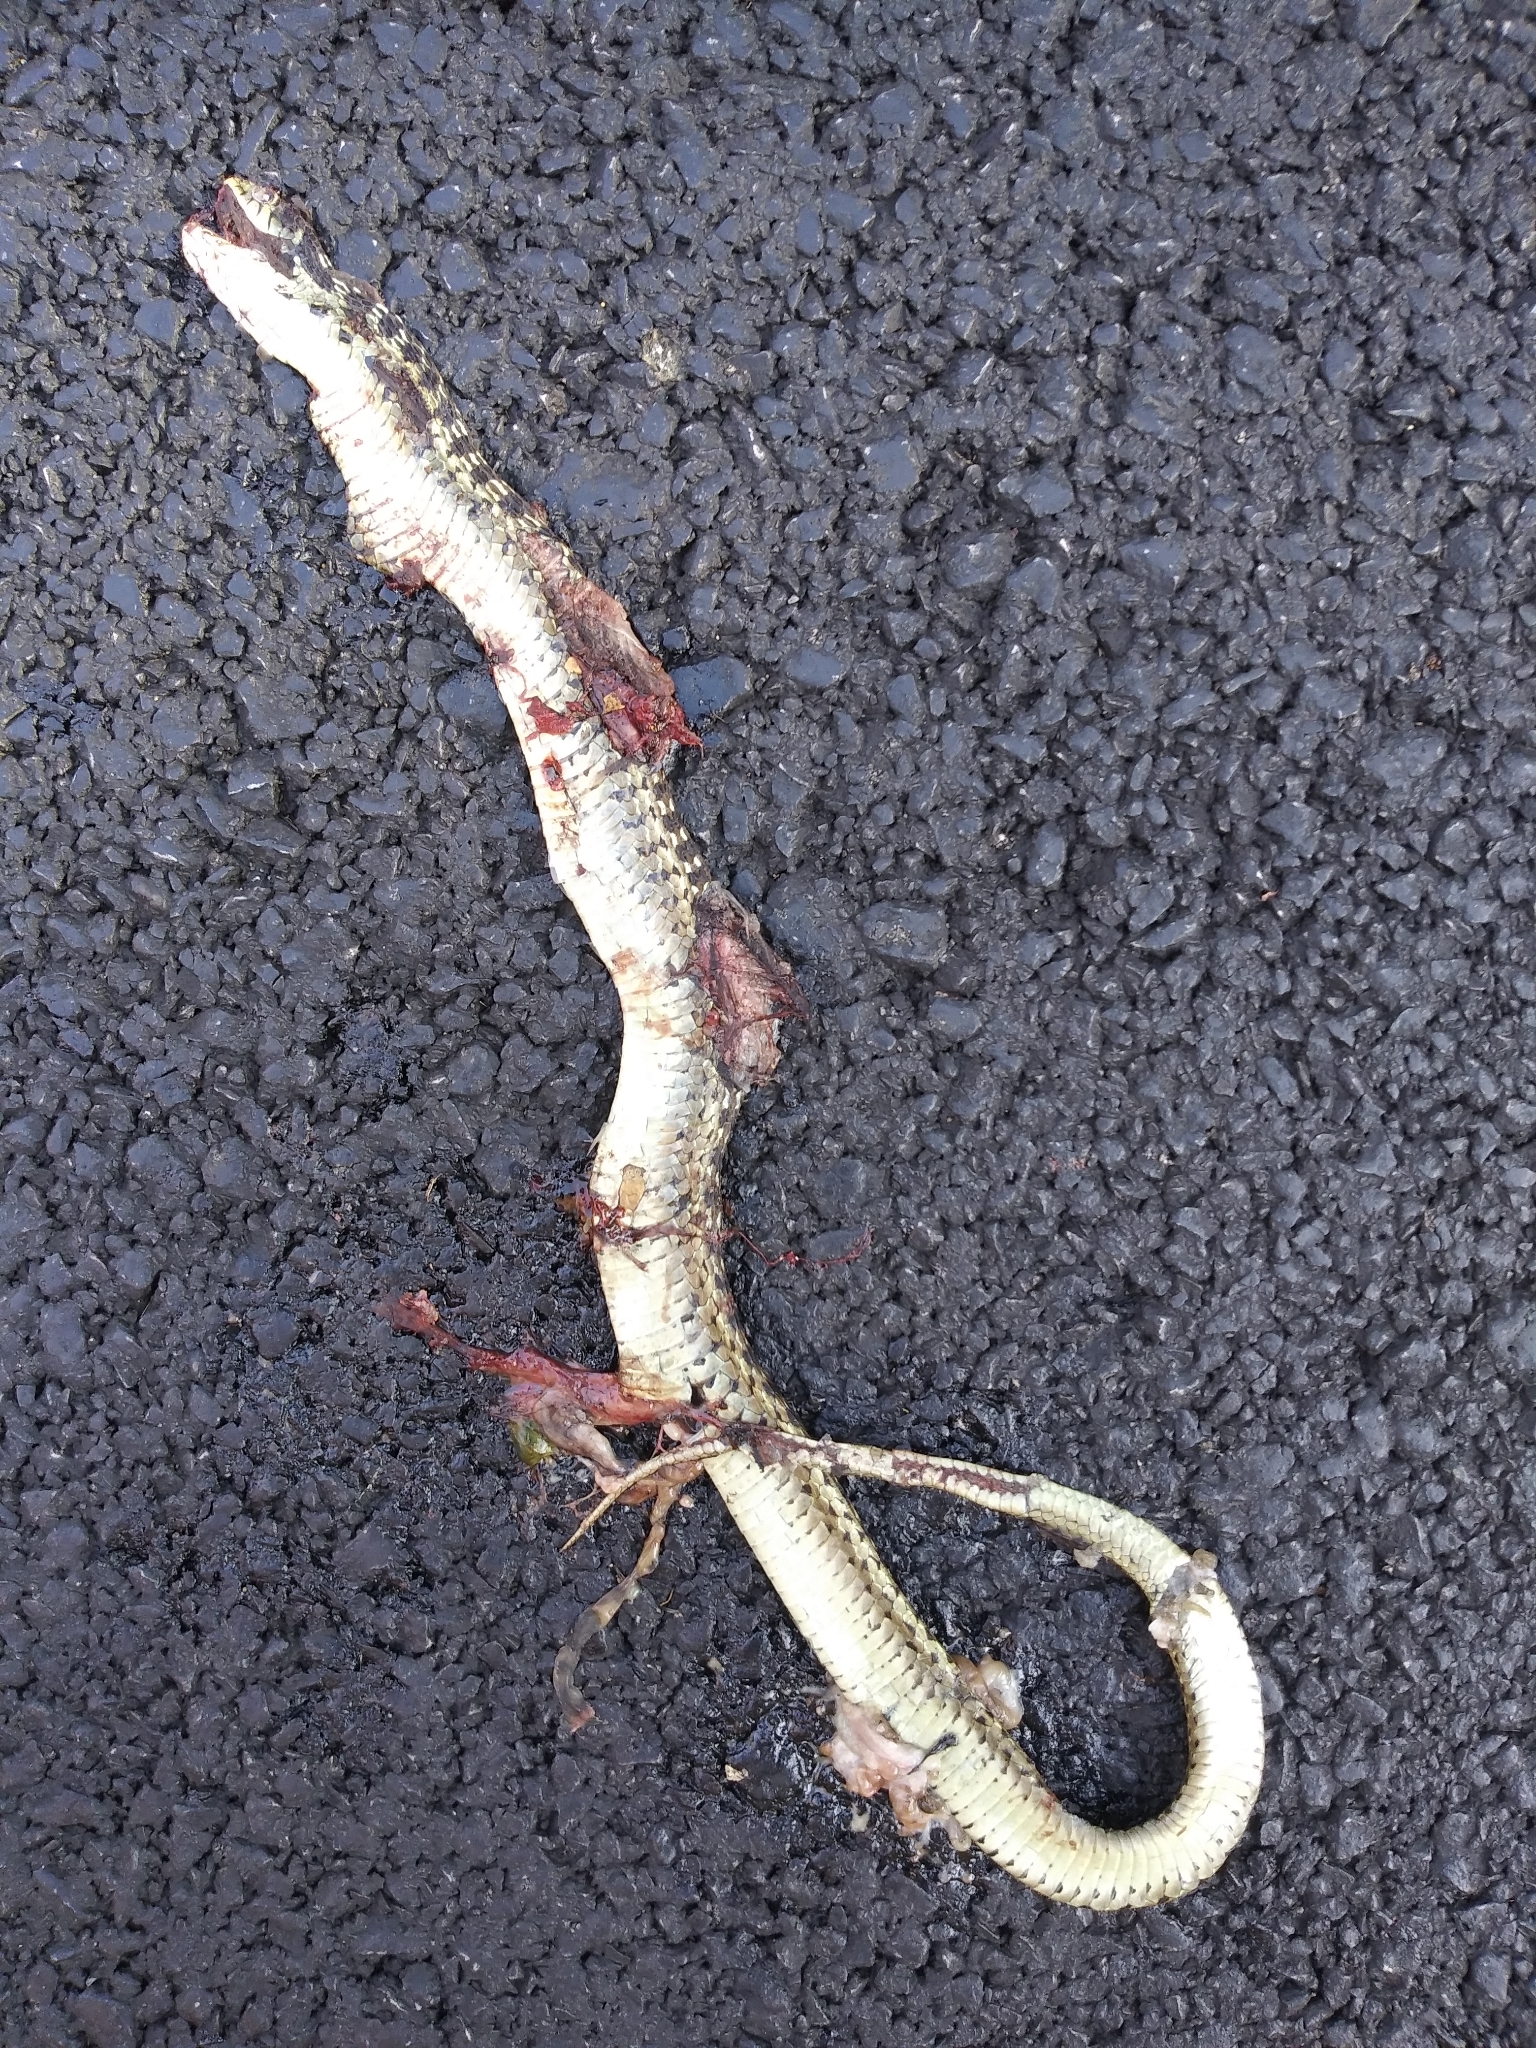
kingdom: Animalia
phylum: Chordata
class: Squamata
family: Colubridae
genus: Thamnophis
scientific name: Thamnophis sirtalis
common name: Common garter snake
